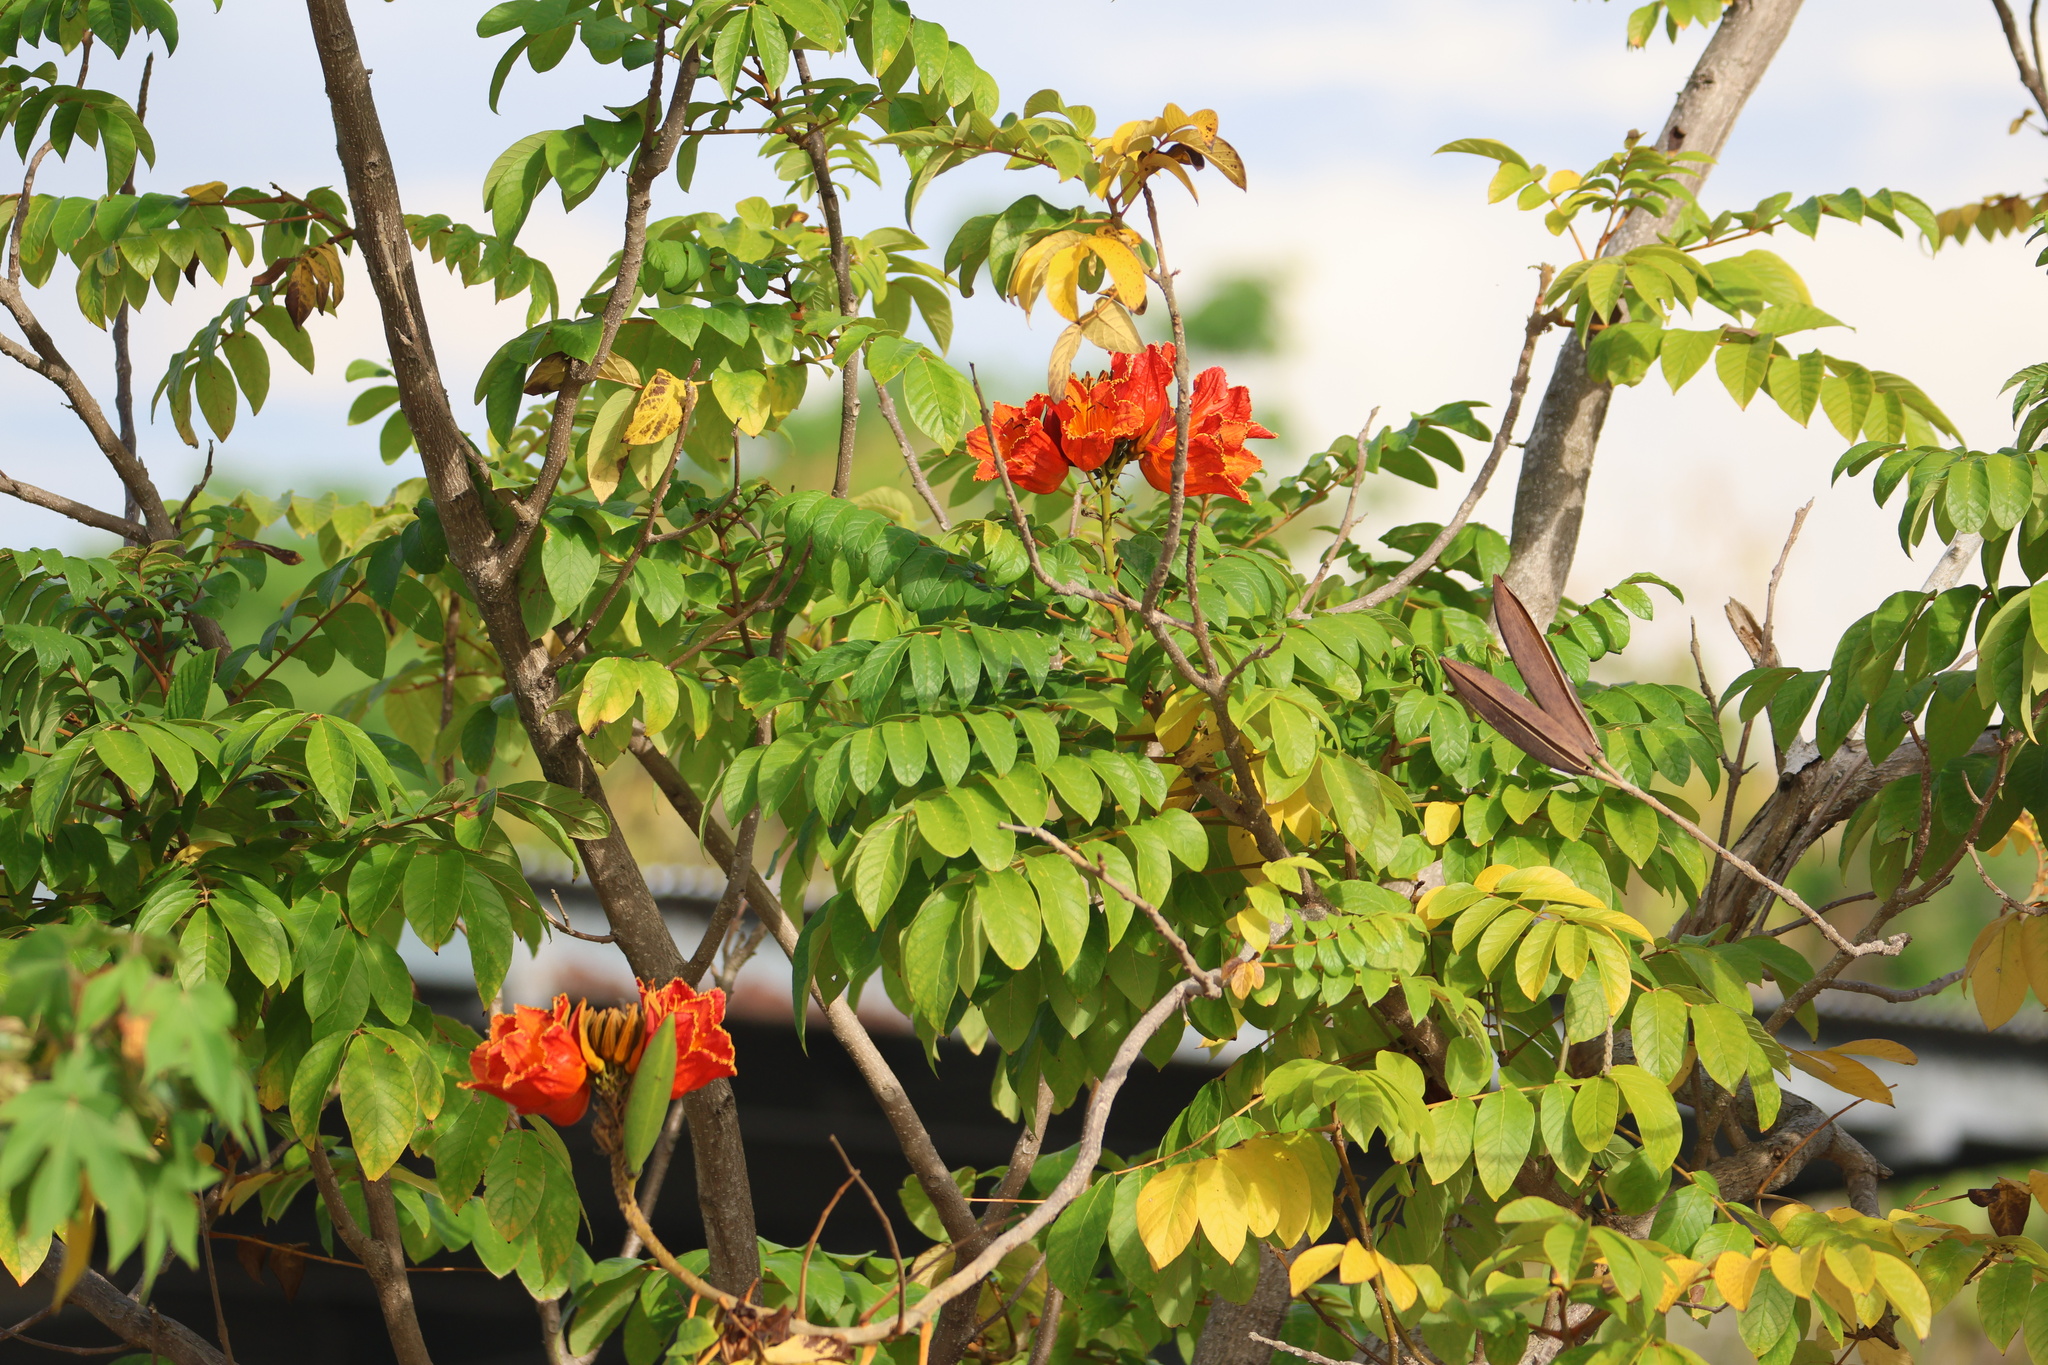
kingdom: Plantae
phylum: Tracheophyta
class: Magnoliopsida
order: Lamiales
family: Bignoniaceae
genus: Spathodea
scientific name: Spathodea campanulata
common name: African tuliptree
